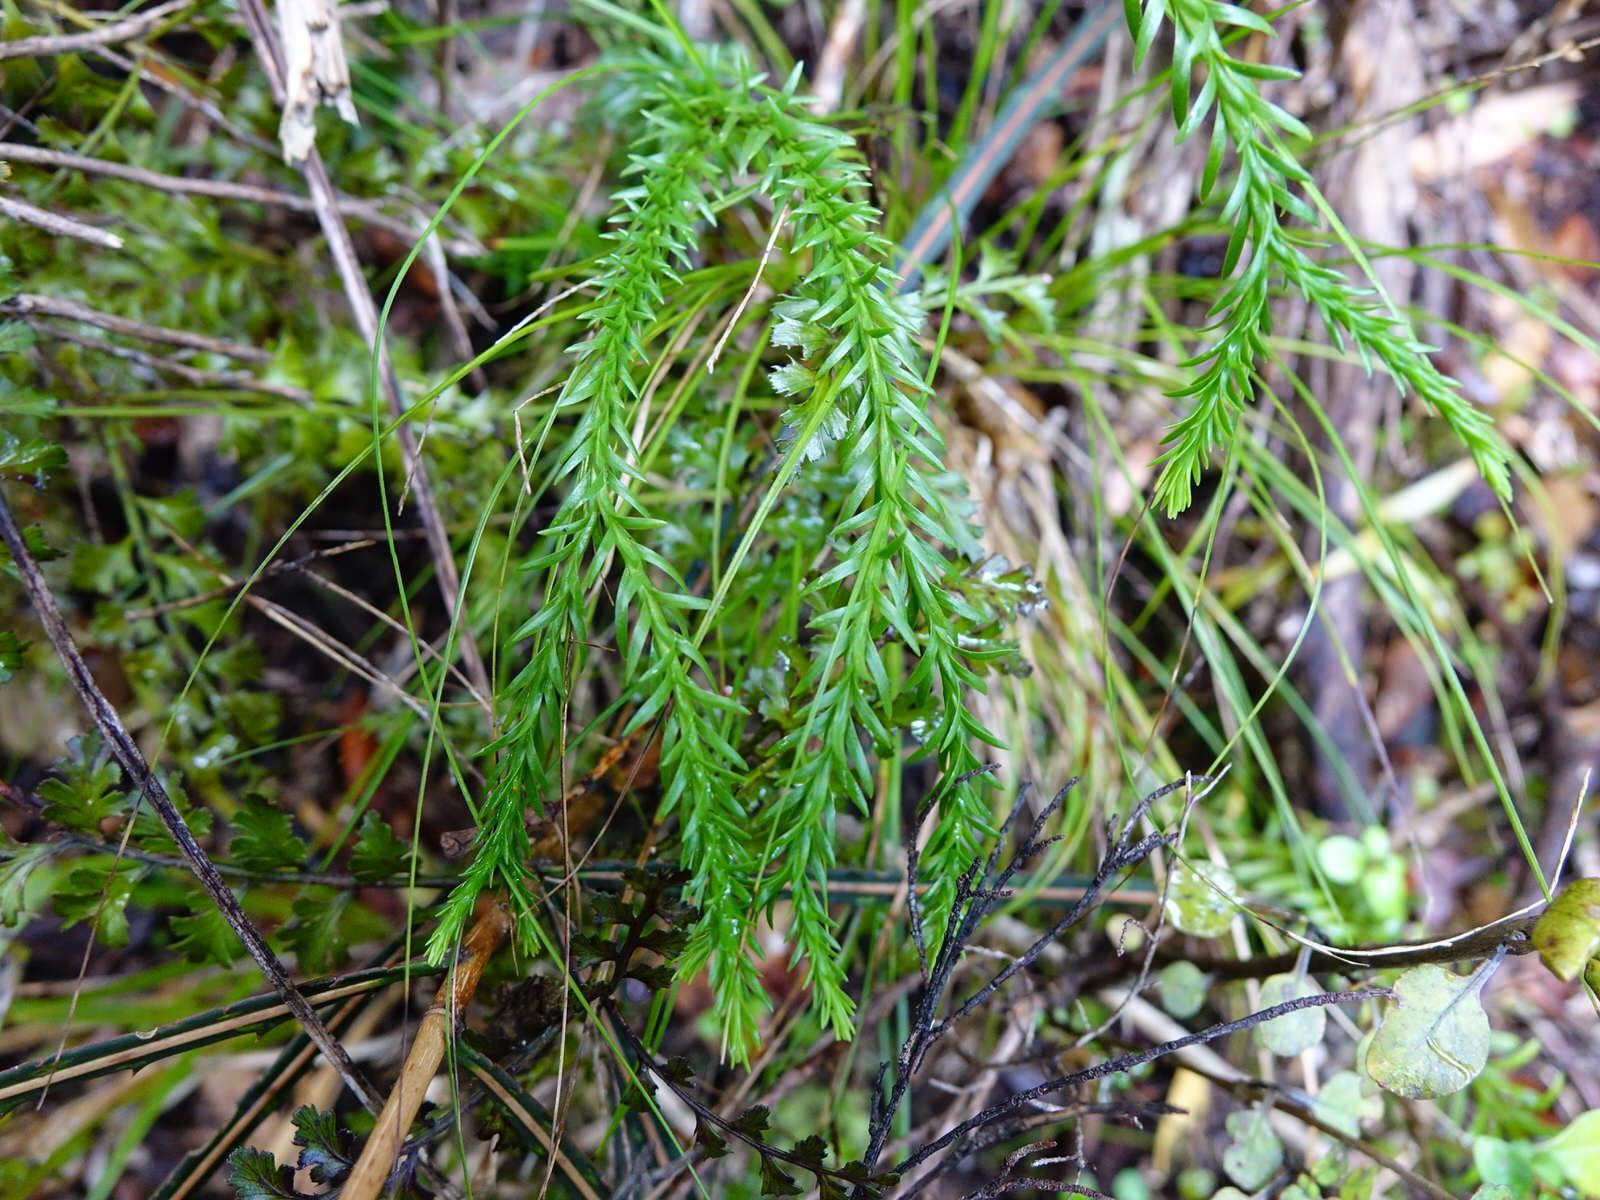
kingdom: Plantae
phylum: Tracheophyta
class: Lycopodiopsida
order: Lycopodiales
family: Lycopodiaceae
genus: Phlegmariurus
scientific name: Phlegmariurus varius
